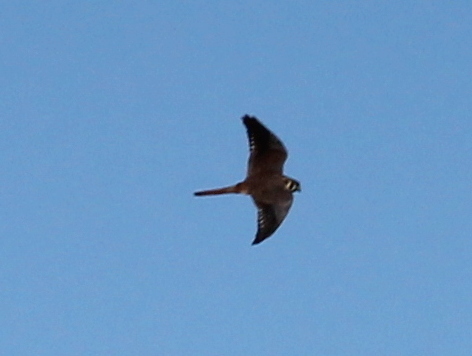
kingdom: Animalia
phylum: Chordata
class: Aves
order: Falconiformes
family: Falconidae
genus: Falco
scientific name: Falco sparverius
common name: American kestrel
